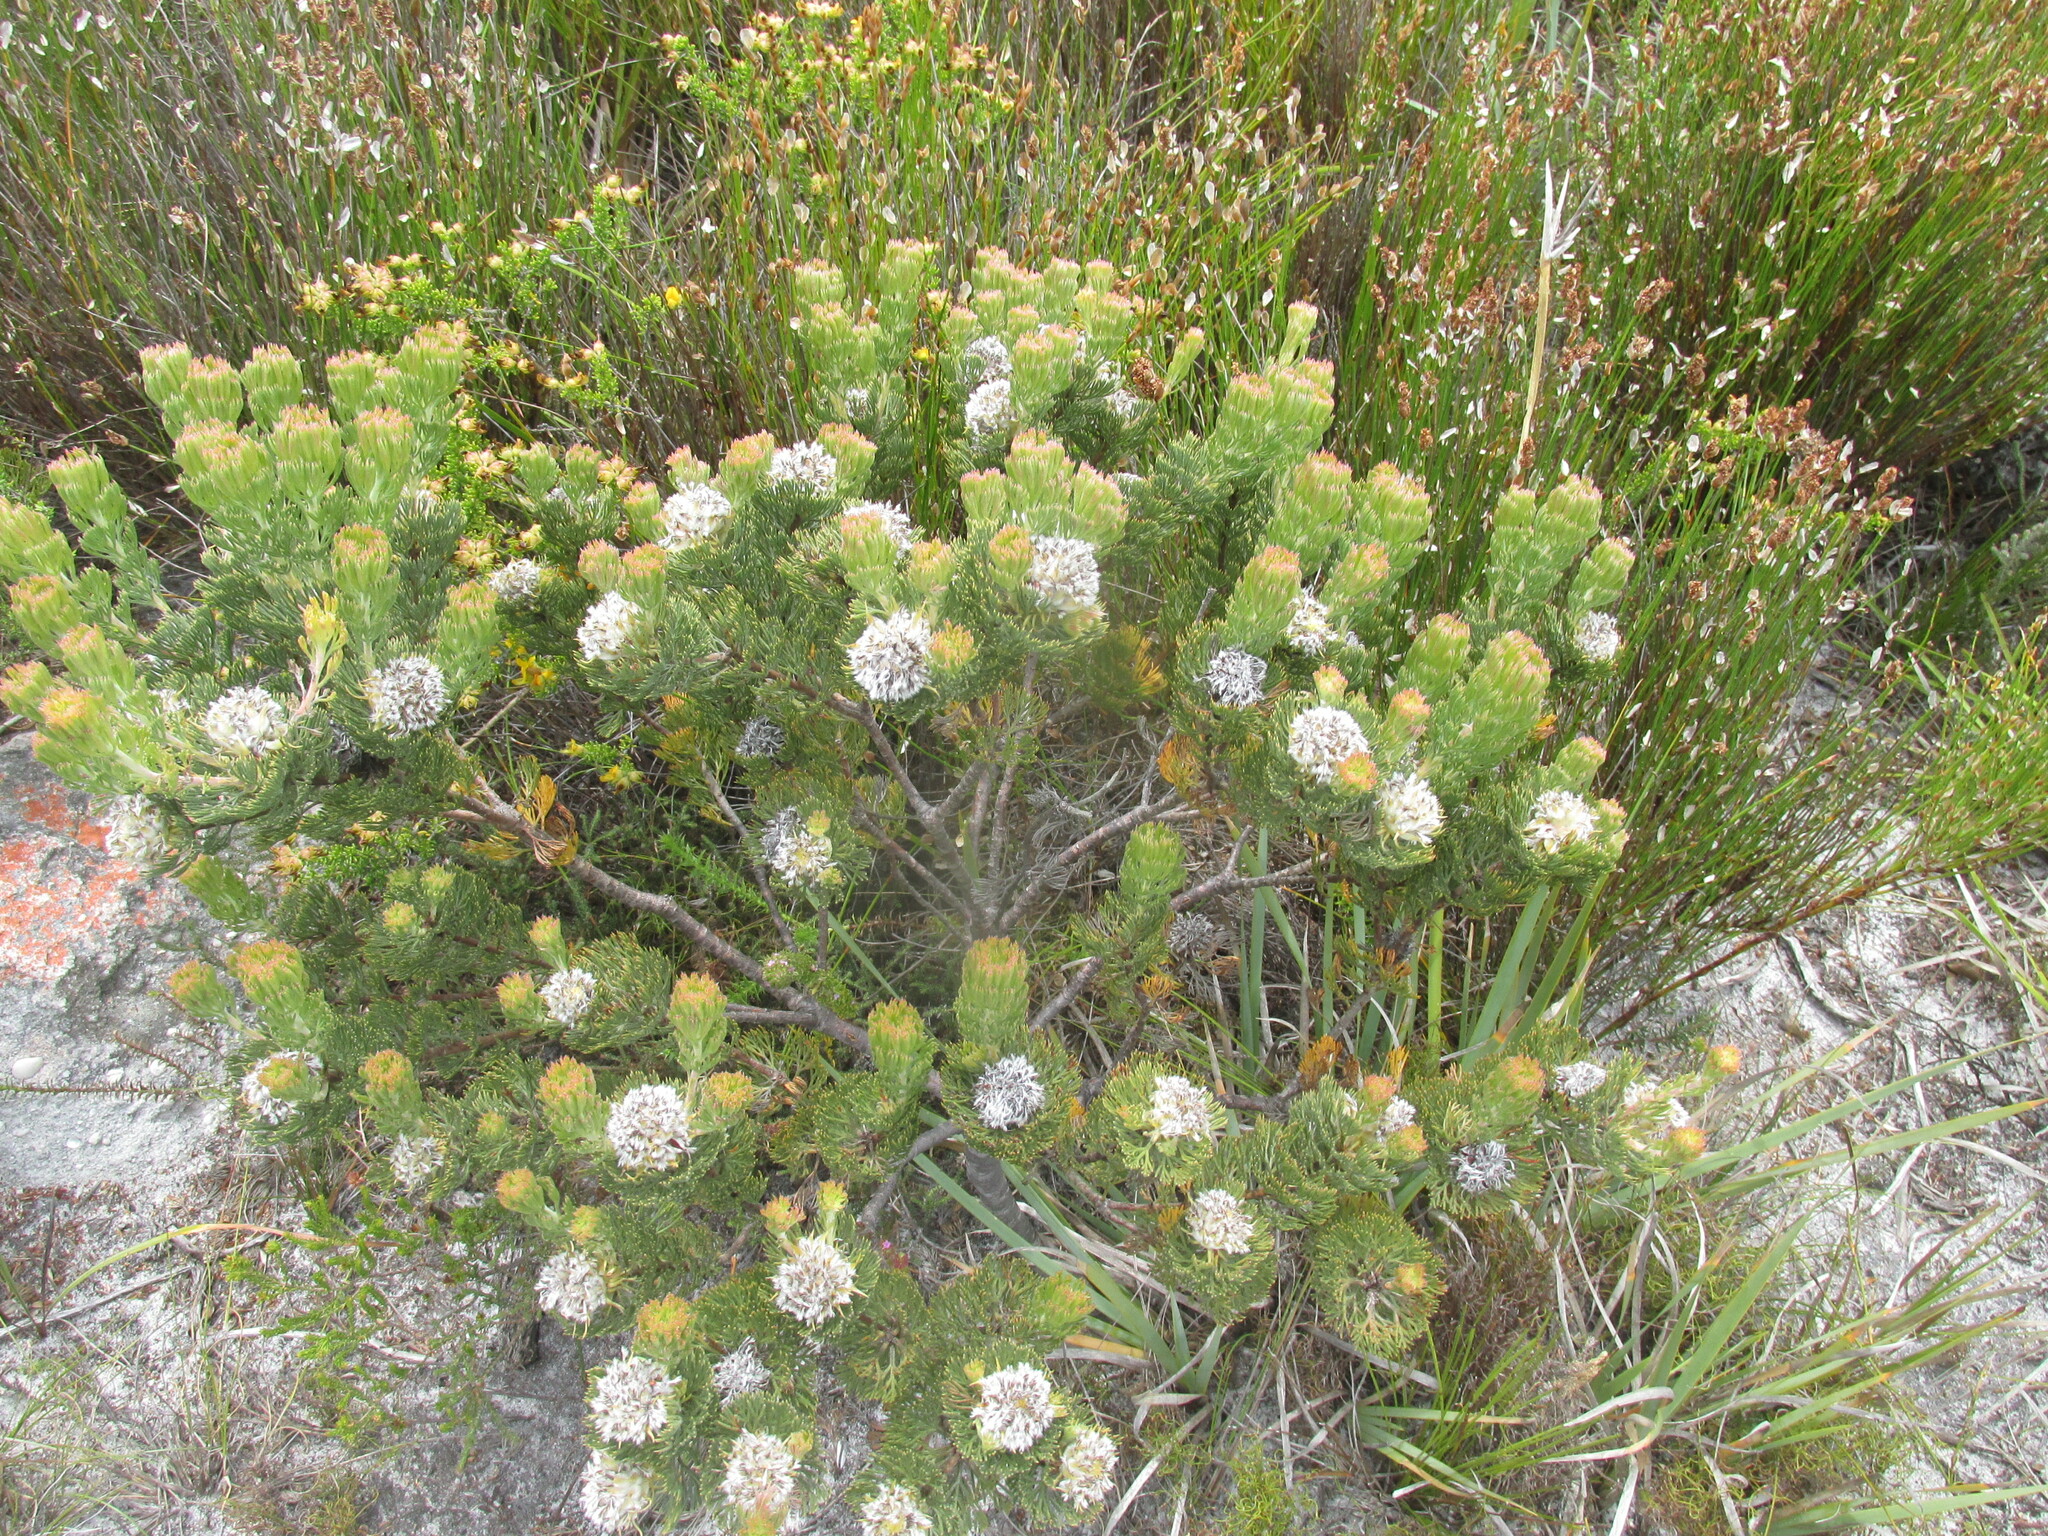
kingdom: Plantae
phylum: Tracheophyta
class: Magnoliopsida
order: Proteales
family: Proteaceae
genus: Serruria
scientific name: Serruria villosa
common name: Golden spiderhead
